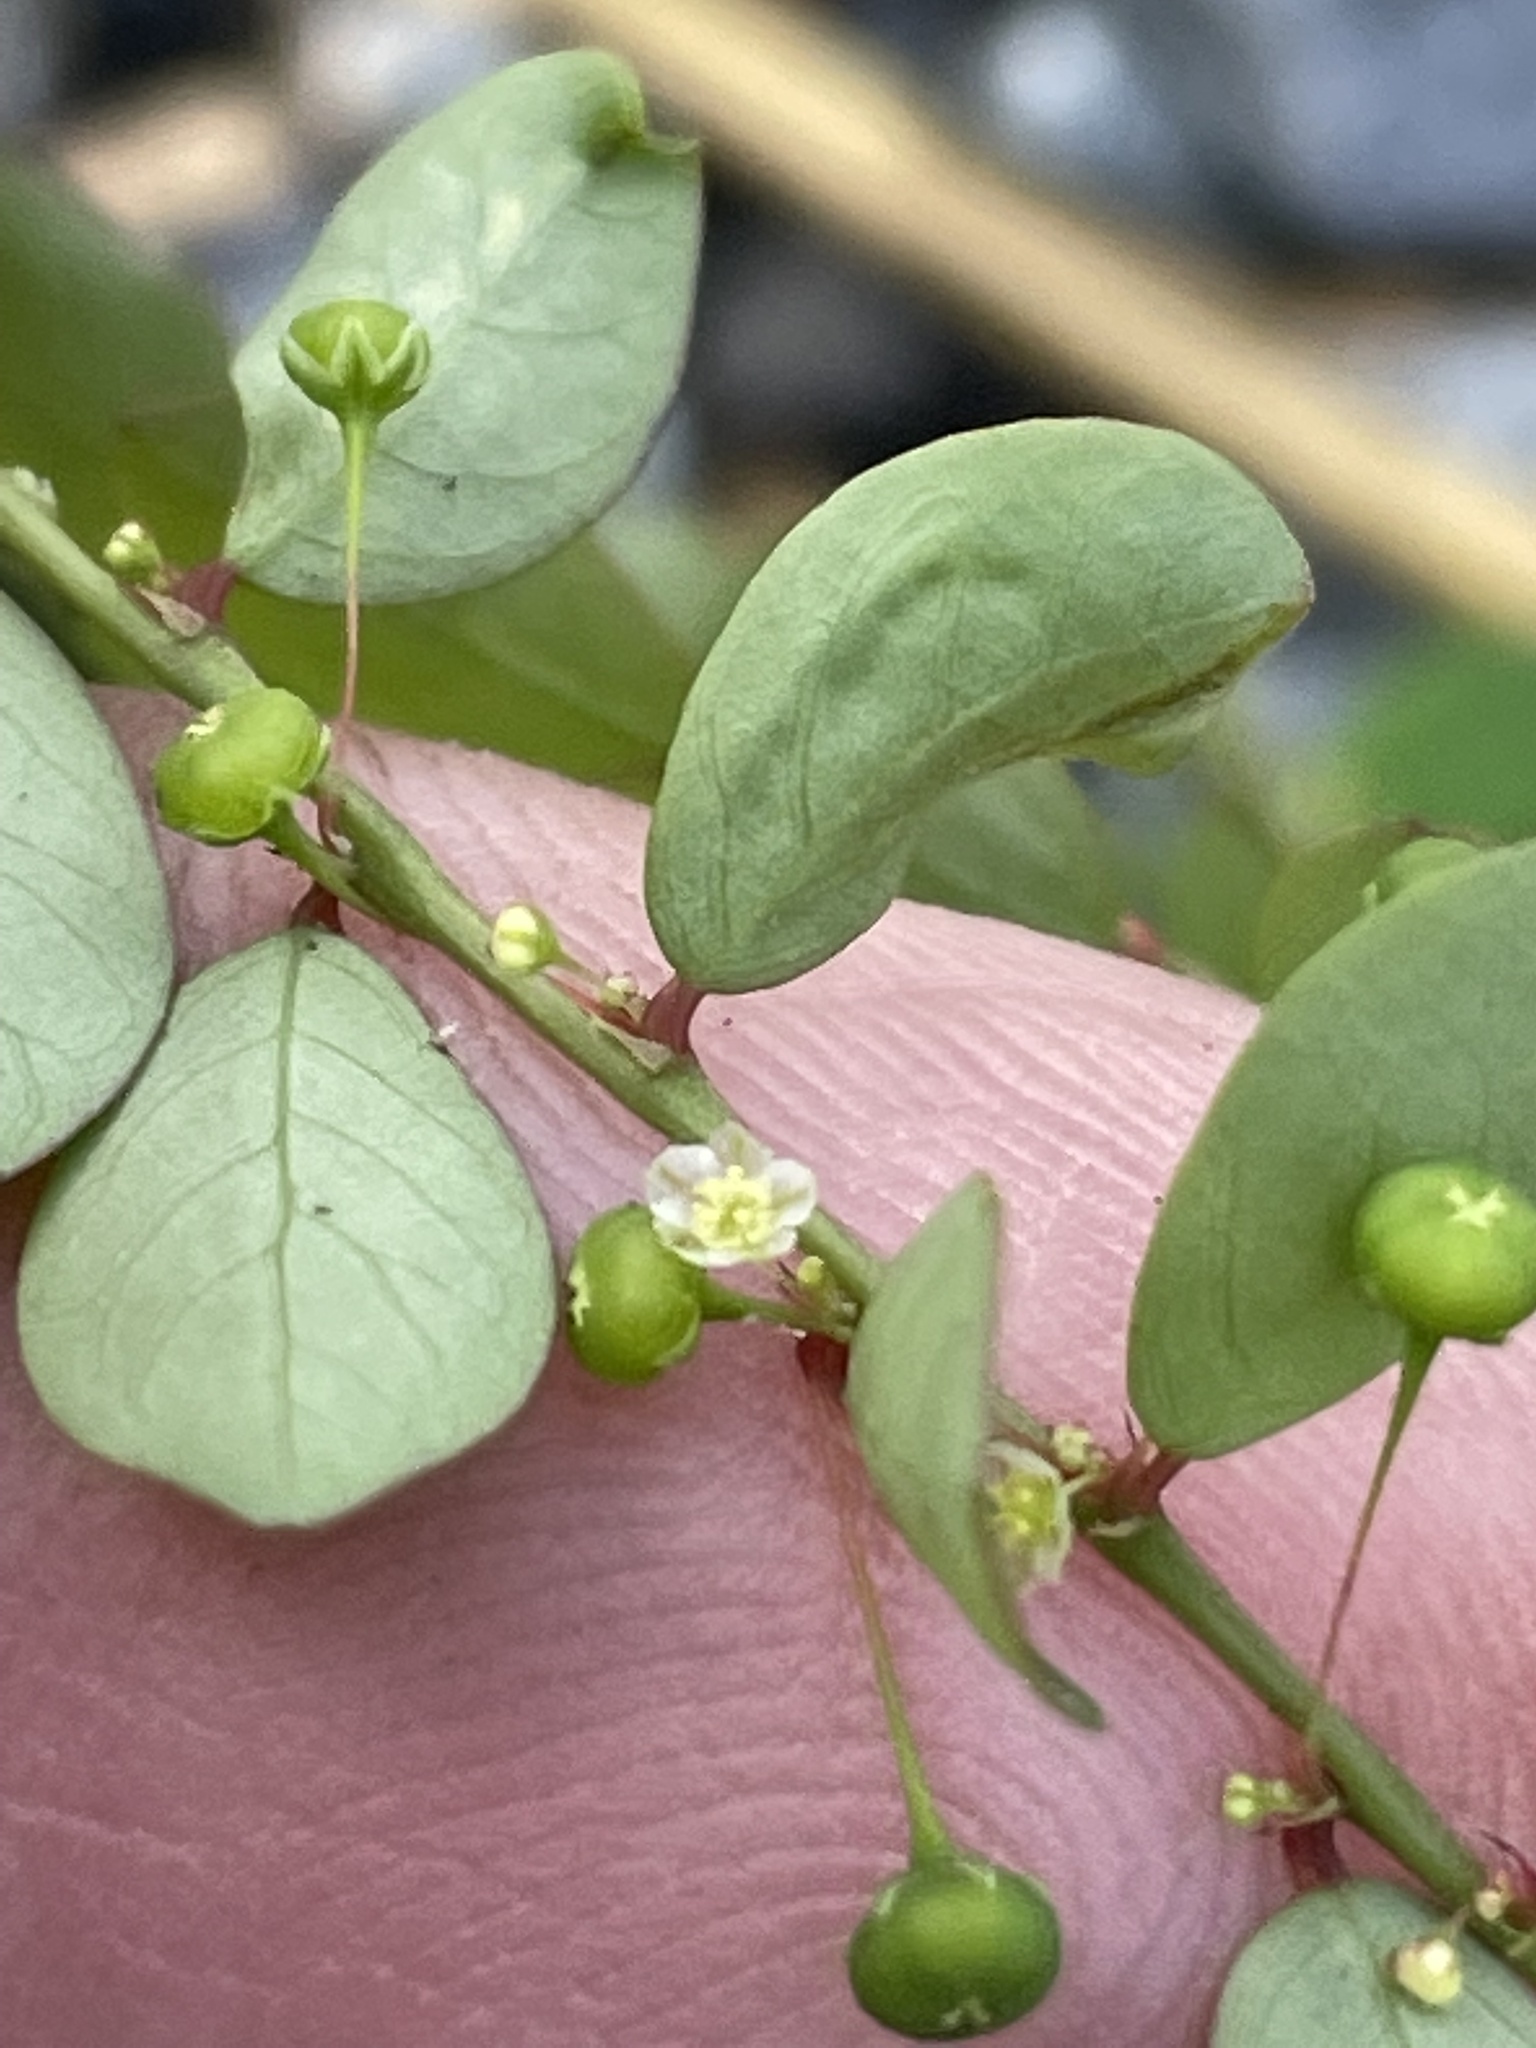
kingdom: Plantae
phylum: Tracheophyta
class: Magnoliopsida
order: Malpighiales
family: Phyllanthaceae
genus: Phyllanthus
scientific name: Phyllanthus tenellus
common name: Mascarene island leaf-flower
